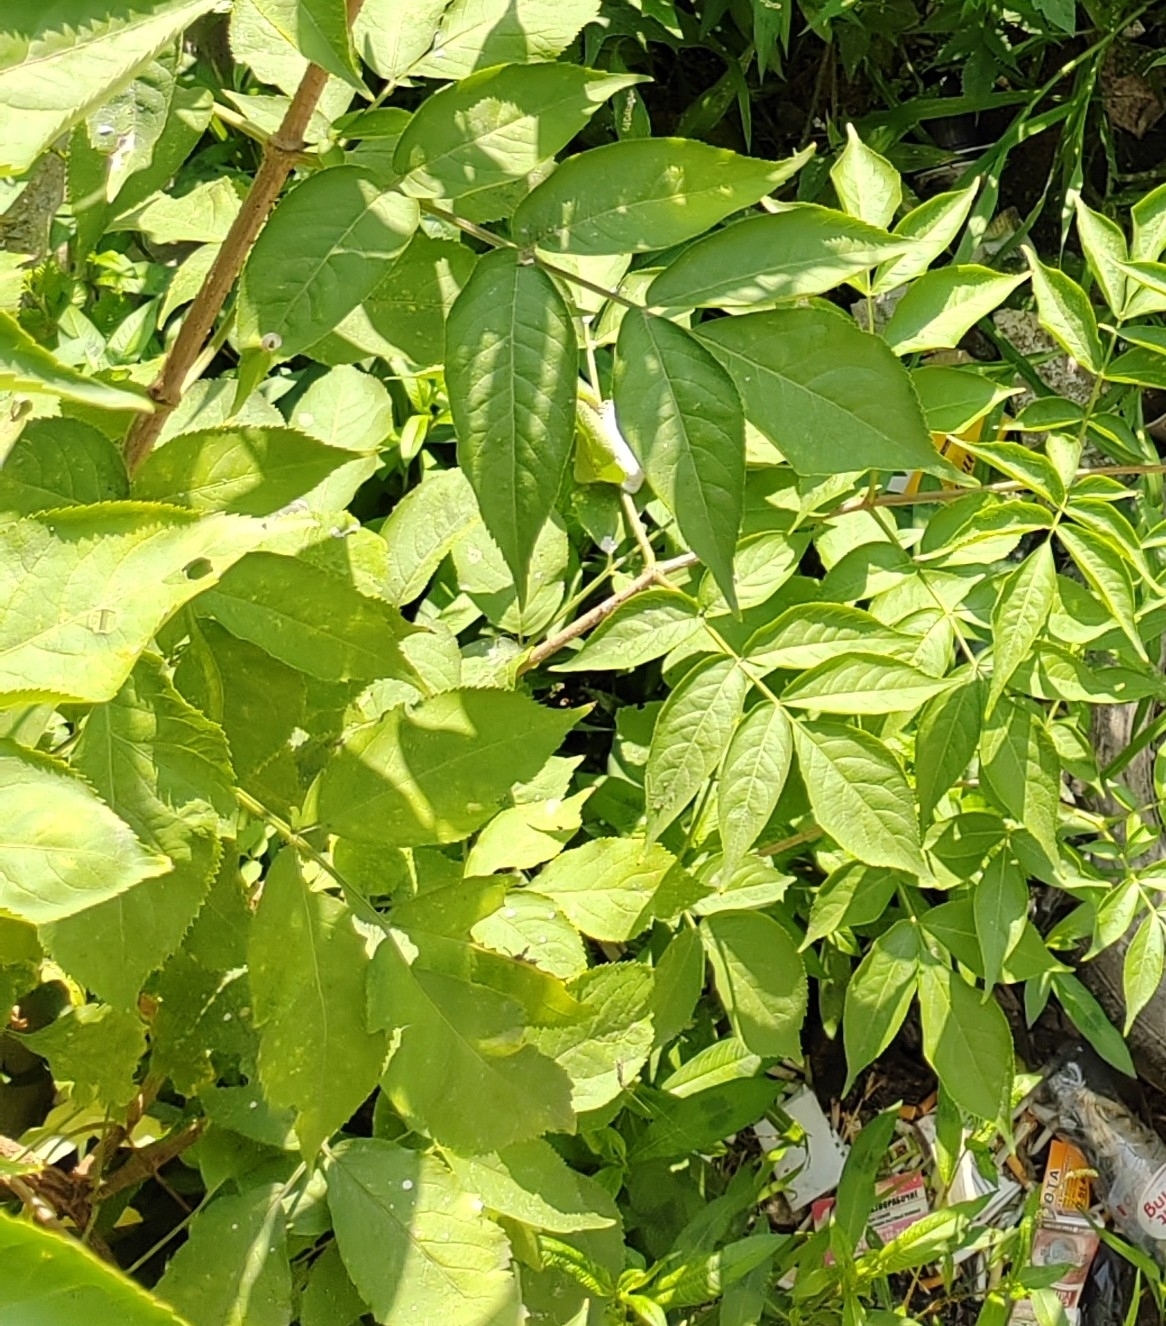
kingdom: Plantae
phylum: Tracheophyta
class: Magnoliopsida
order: Dipsacales
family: Viburnaceae
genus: Sambucus
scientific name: Sambucus nigra
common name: Elder
